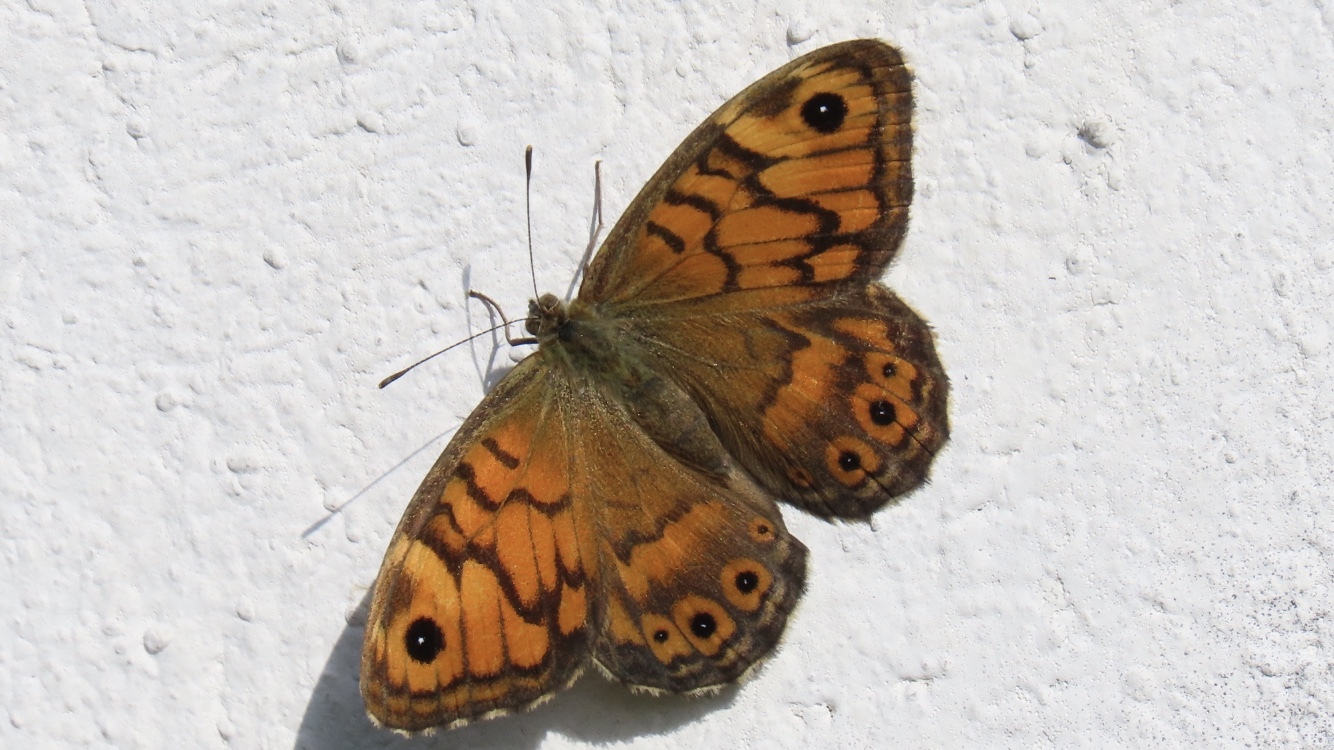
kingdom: Animalia
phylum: Arthropoda
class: Insecta
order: Lepidoptera
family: Nymphalidae
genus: Pararge
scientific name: Pararge Lasiommata megera
